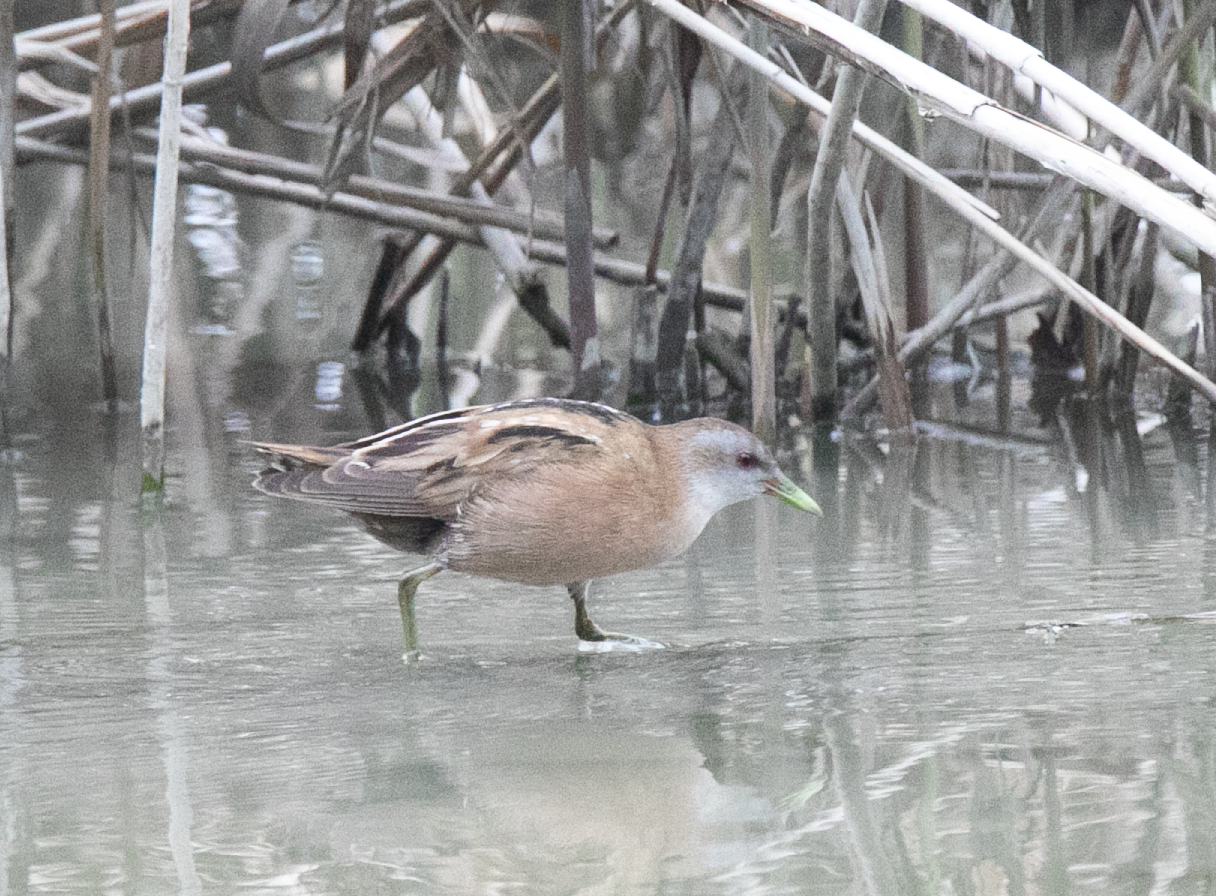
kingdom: Animalia
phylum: Chordata
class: Aves
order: Gruiformes
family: Rallidae
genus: Porzana
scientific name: Porzana parva
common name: Little crake
